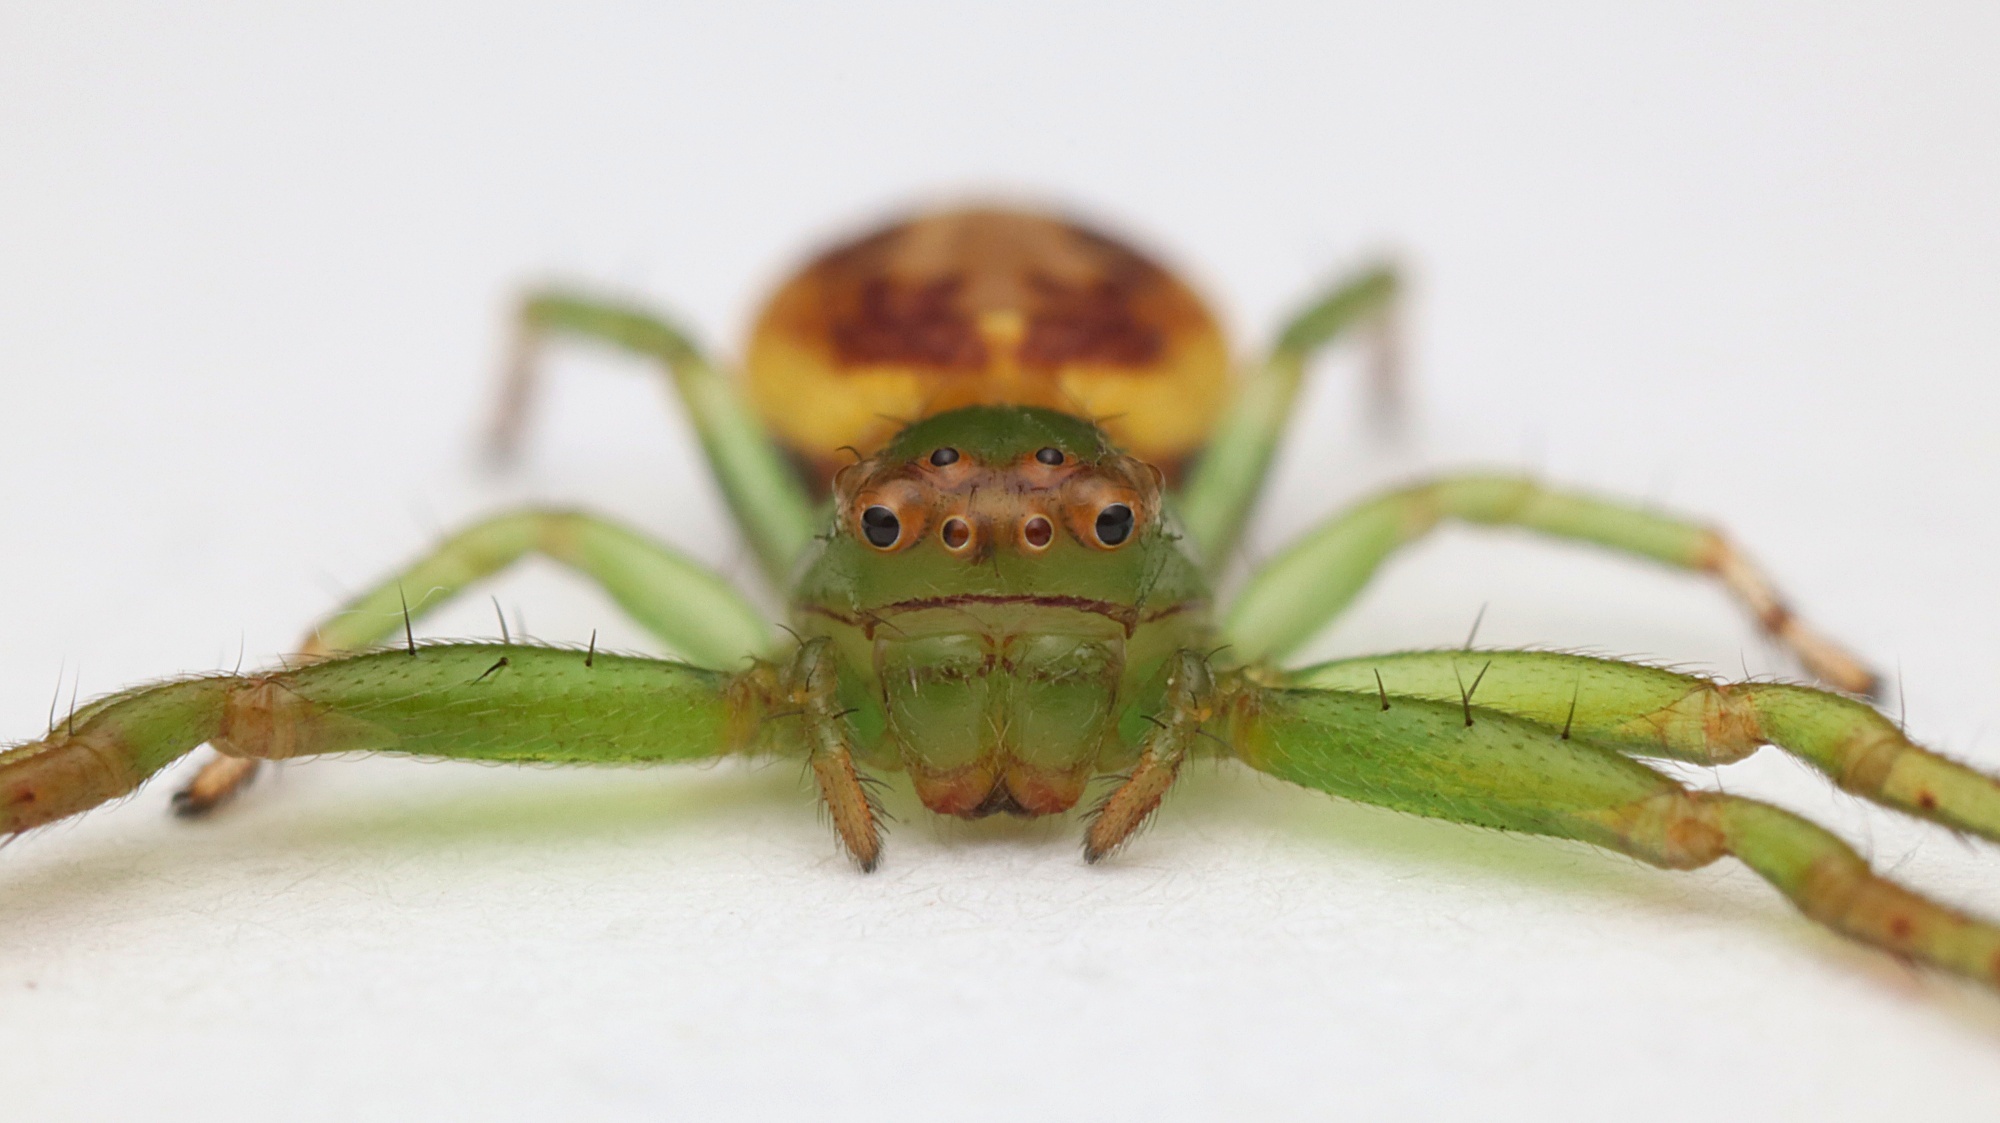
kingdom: Animalia
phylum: Arthropoda
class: Arachnida
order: Araneae
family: Thomisidae
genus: Diaea
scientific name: Diaea ambara
